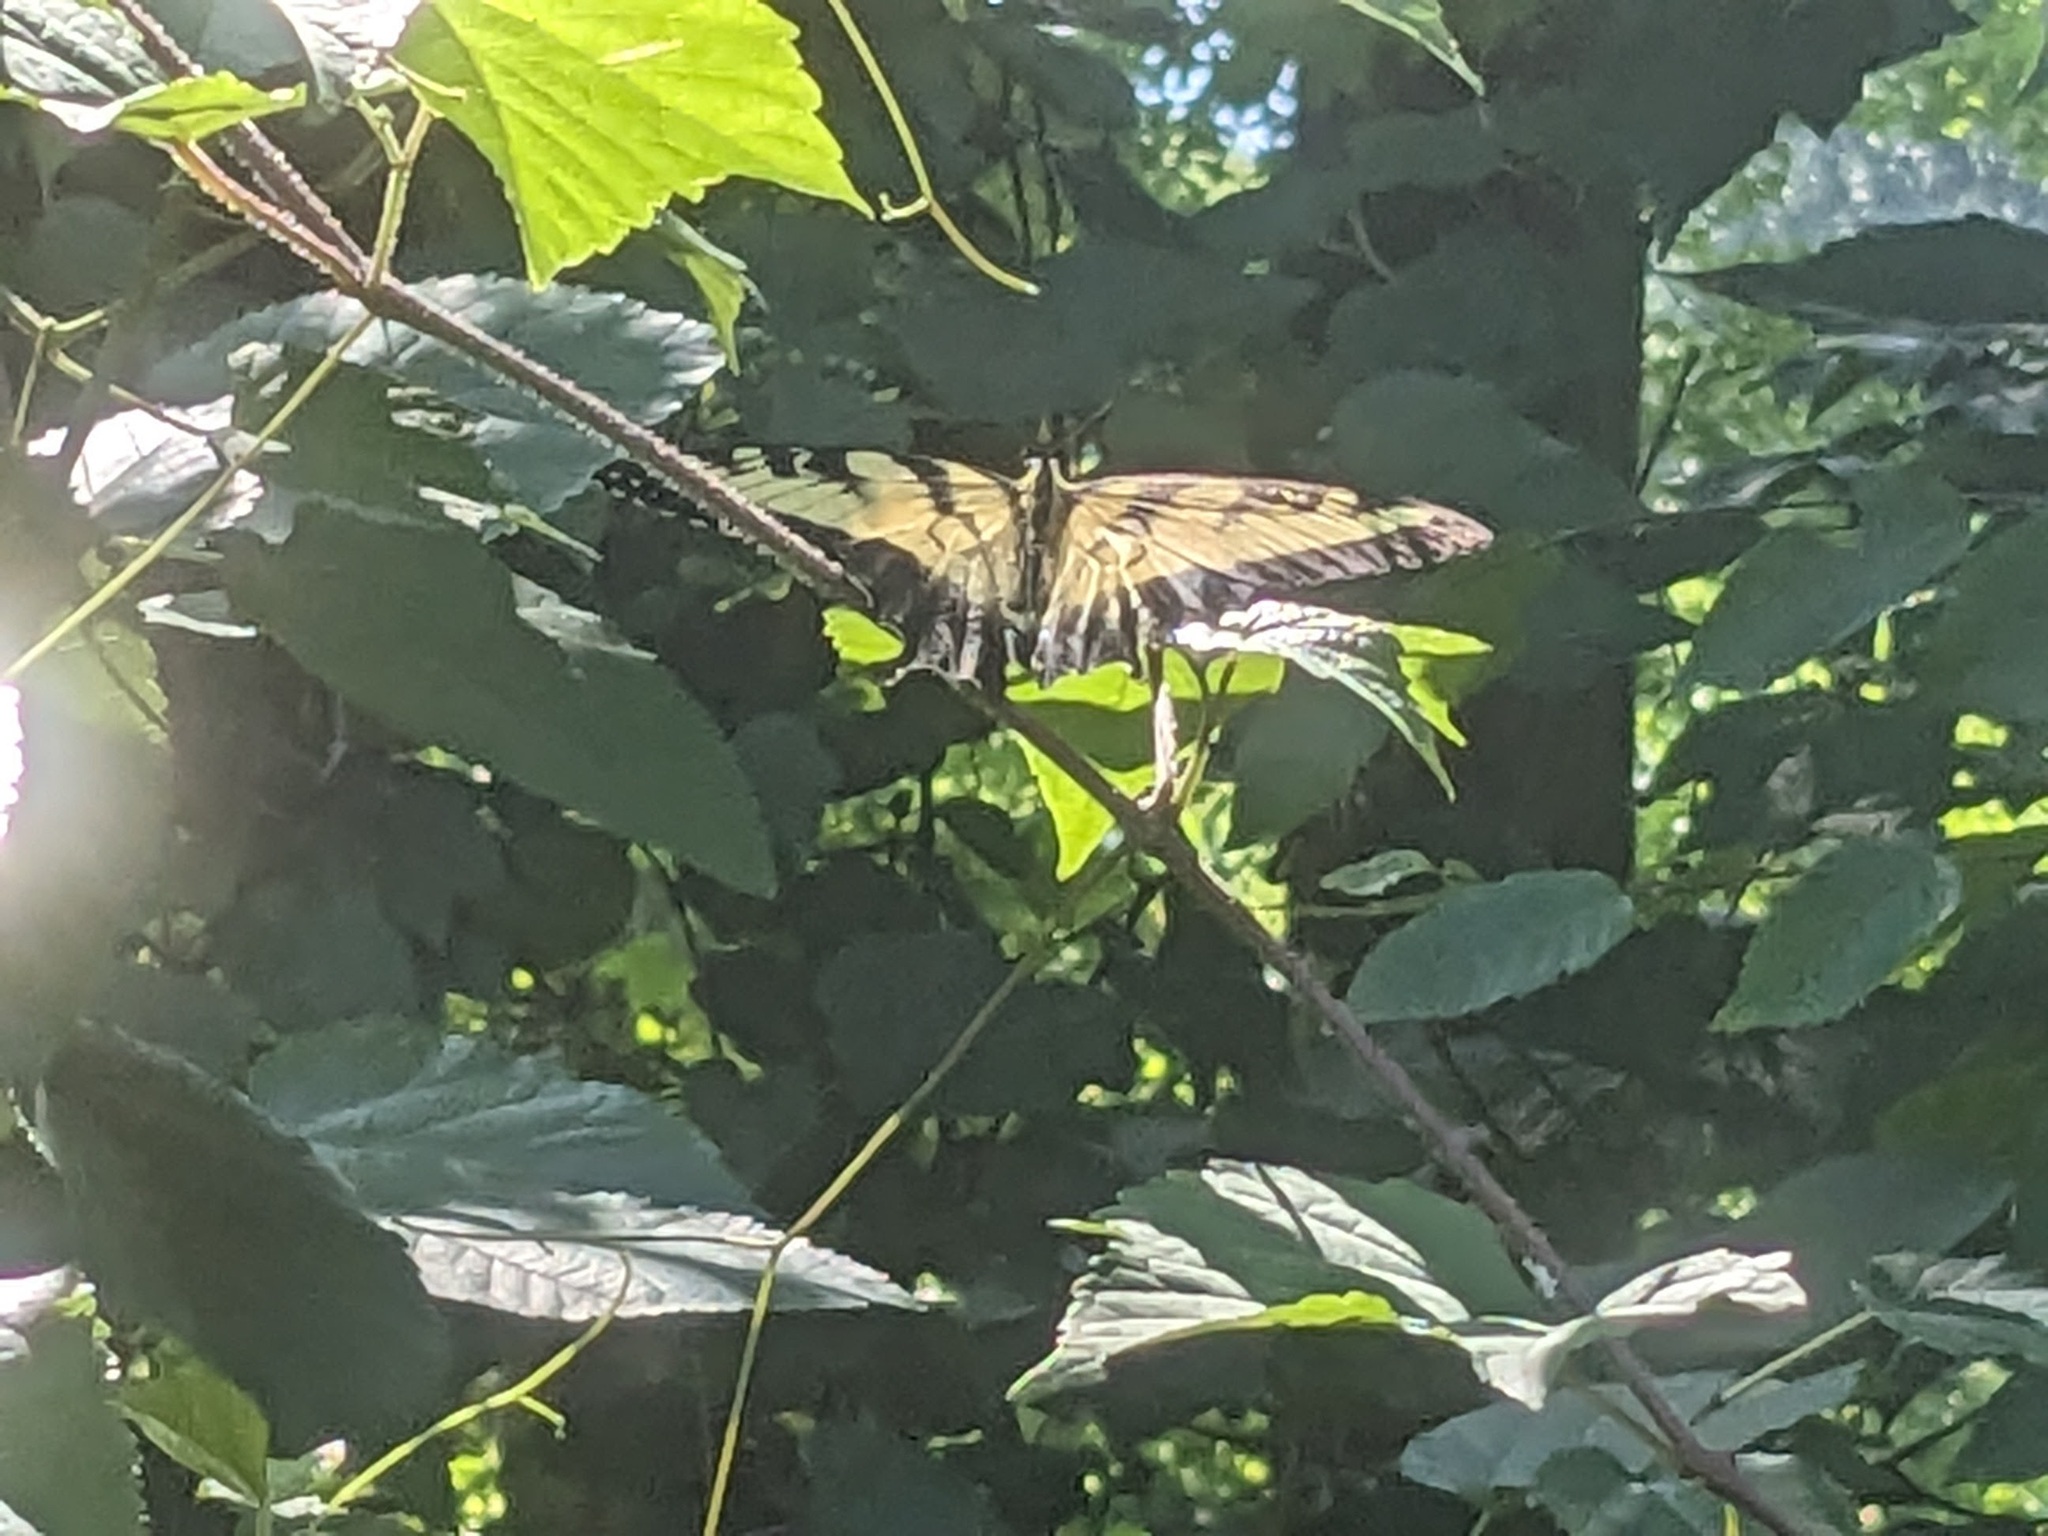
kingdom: Animalia
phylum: Arthropoda
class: Insecta
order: Lepidoptera
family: Papilionidae
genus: Papilio
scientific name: Papilio glaucus
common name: Tiger swallowtail
